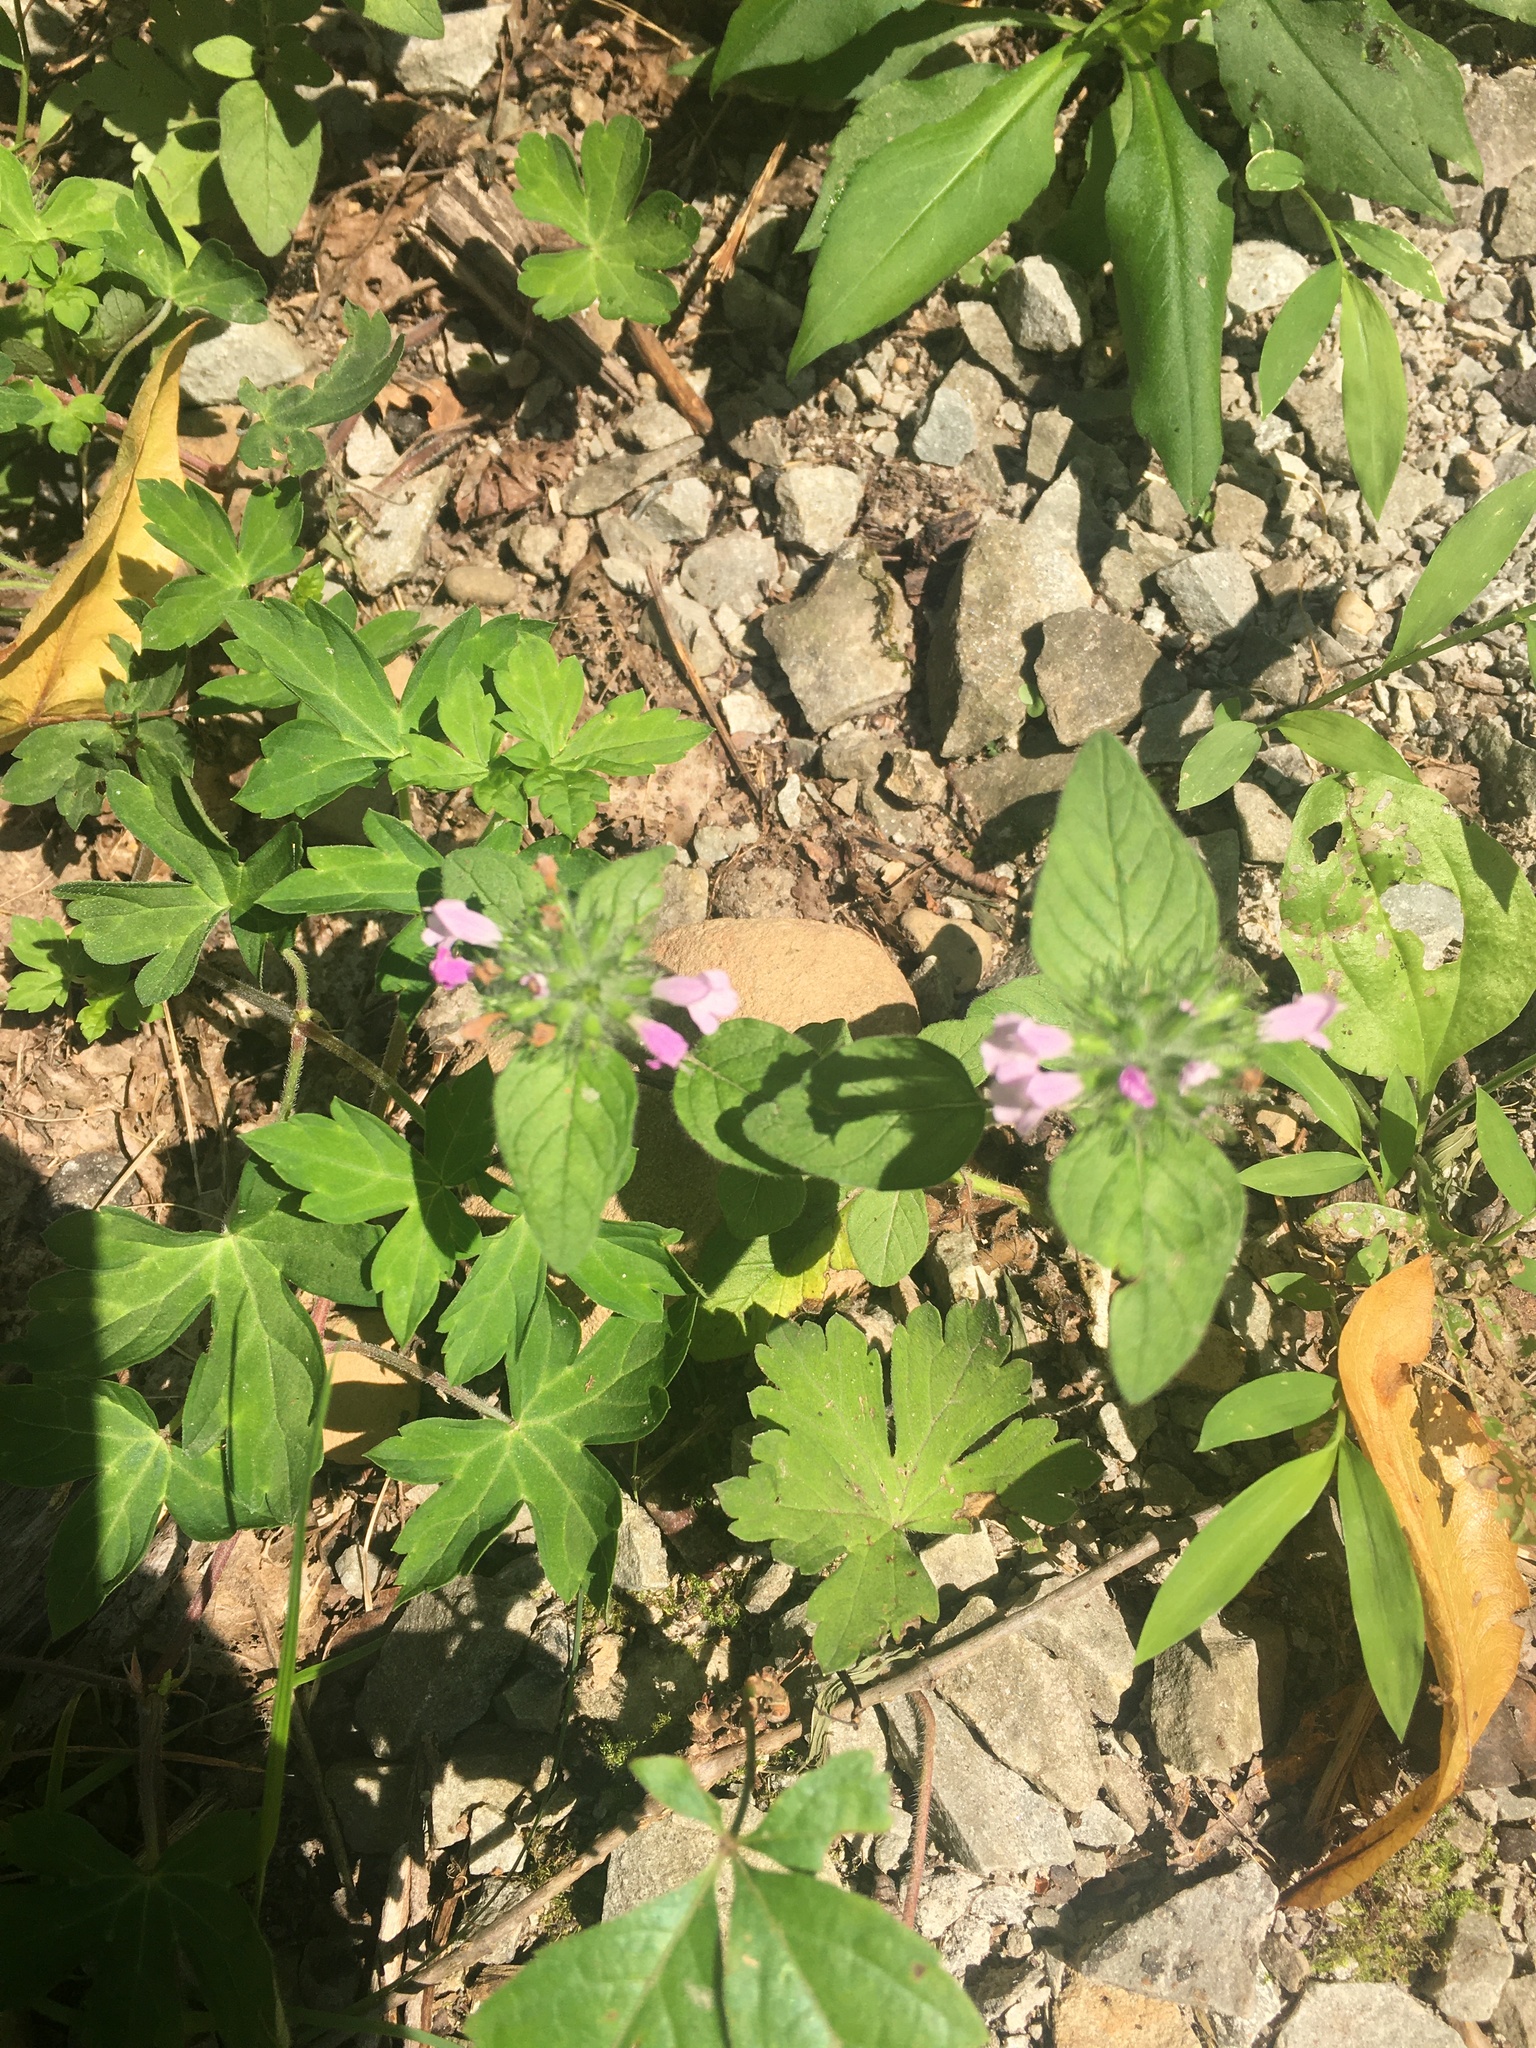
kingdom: Plantae
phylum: Tracheophyta
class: Magnoliopsida
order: Lamiales
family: Lamiaceae
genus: Clinopodium
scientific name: Clinopodium vulgare
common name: Wild basil
